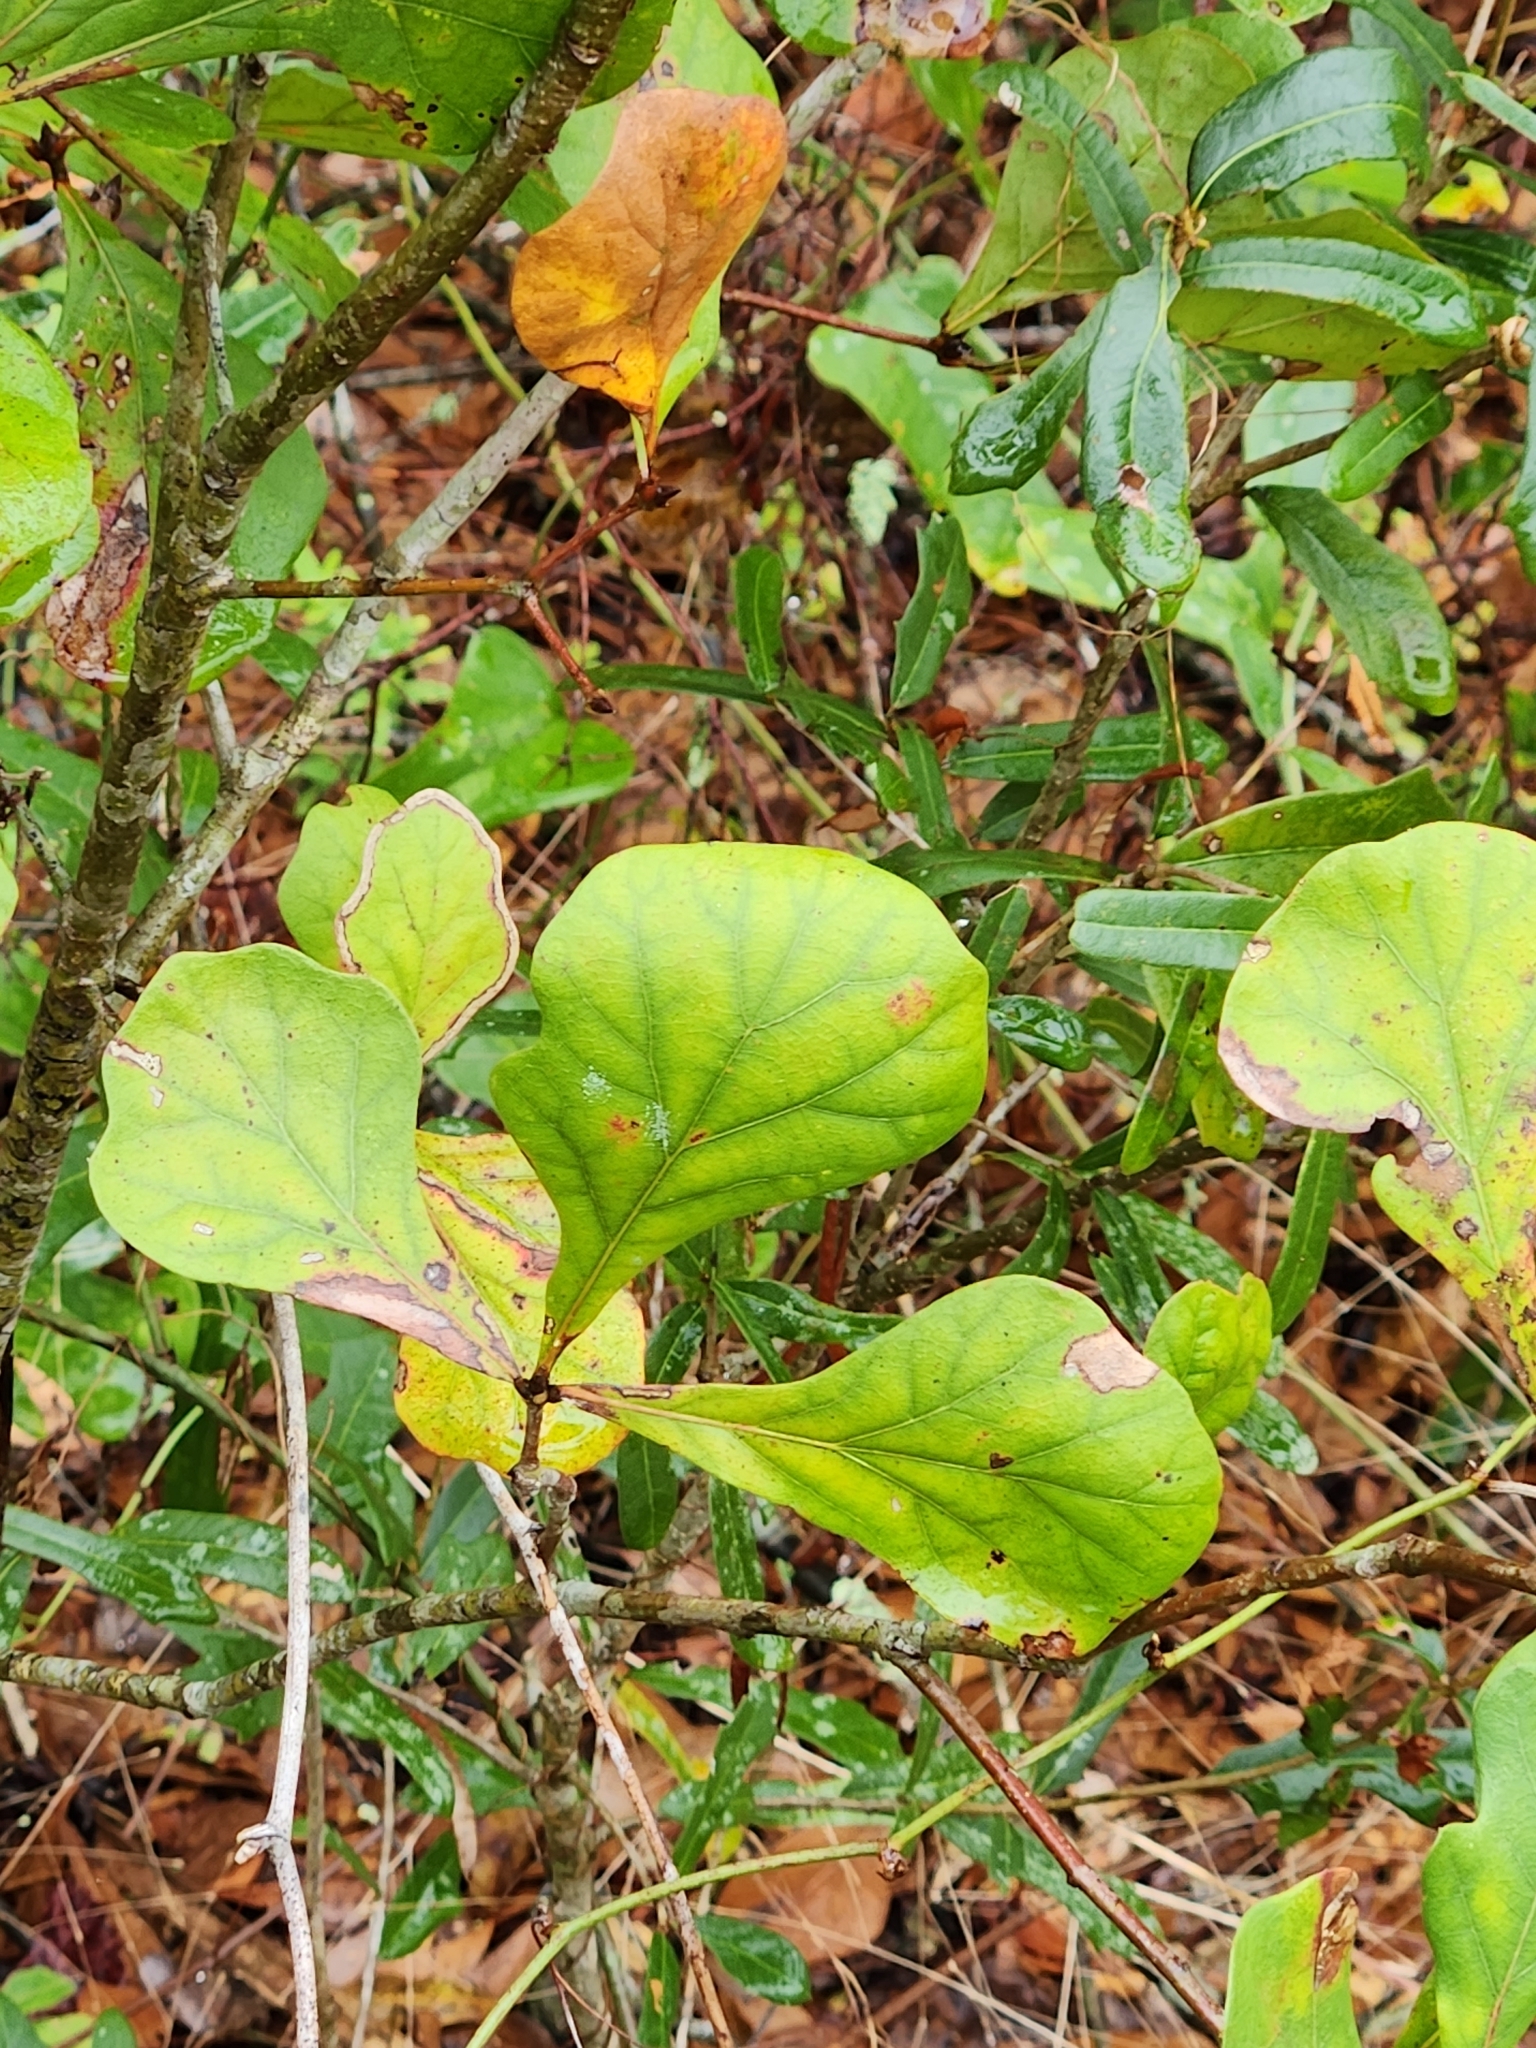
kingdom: Plantae
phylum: Tracheophyta
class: Magnoliopsida
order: Fagales
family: Fagaceae
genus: Quercus
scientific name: Quercus nigra
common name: Water oak
